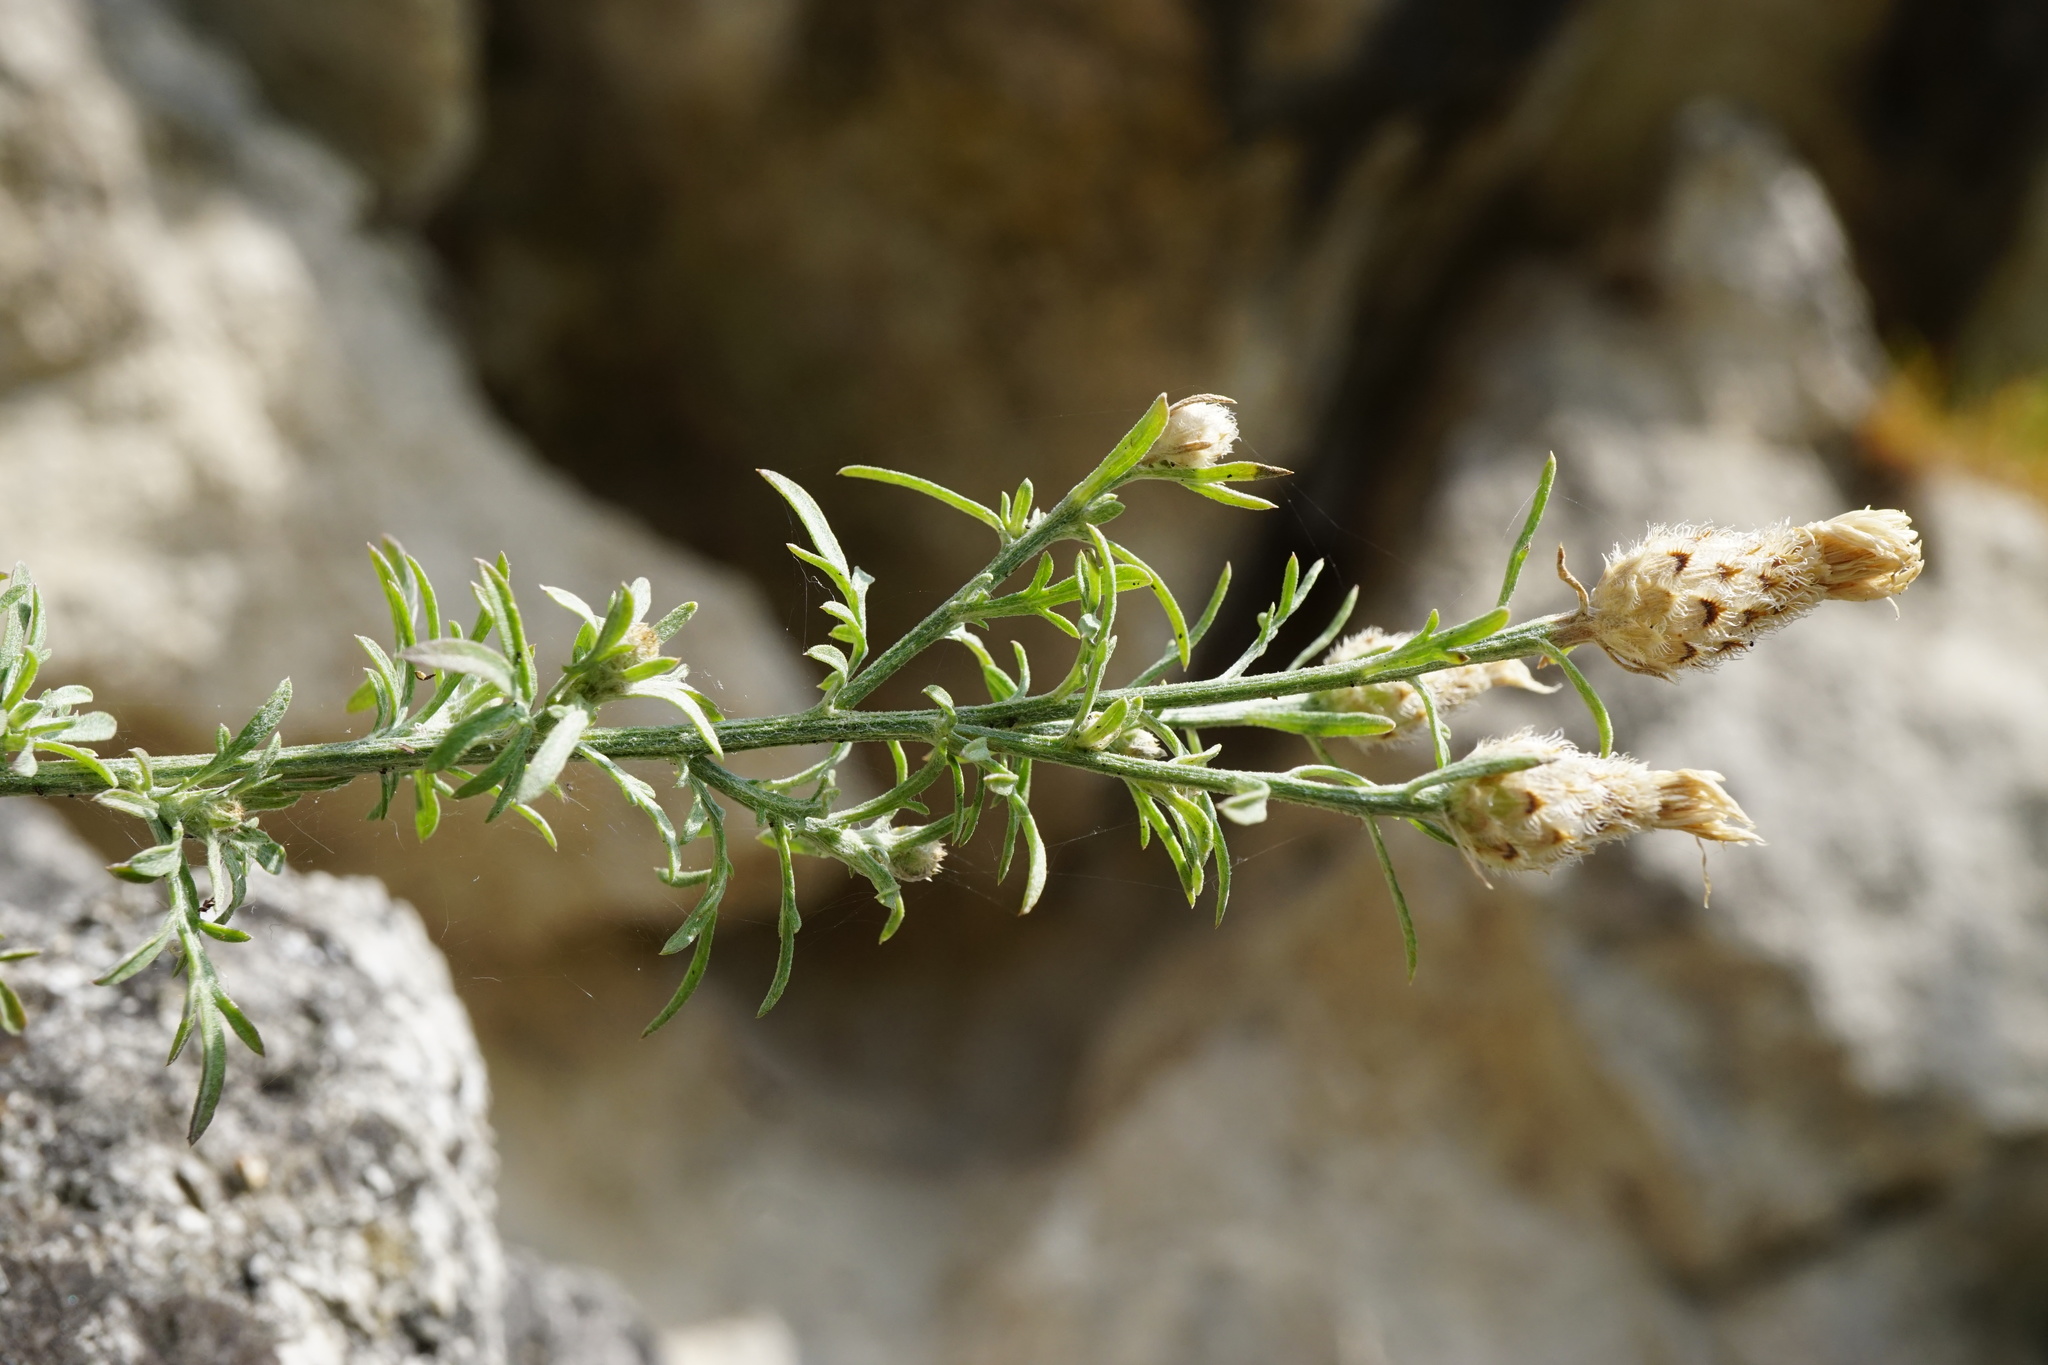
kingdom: Plantae
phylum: Tracheophyta
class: Magnoliopsida
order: Asterales
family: Asteraceae
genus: Centaurea
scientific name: Centaurea stoebe
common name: Spotted knapweed
